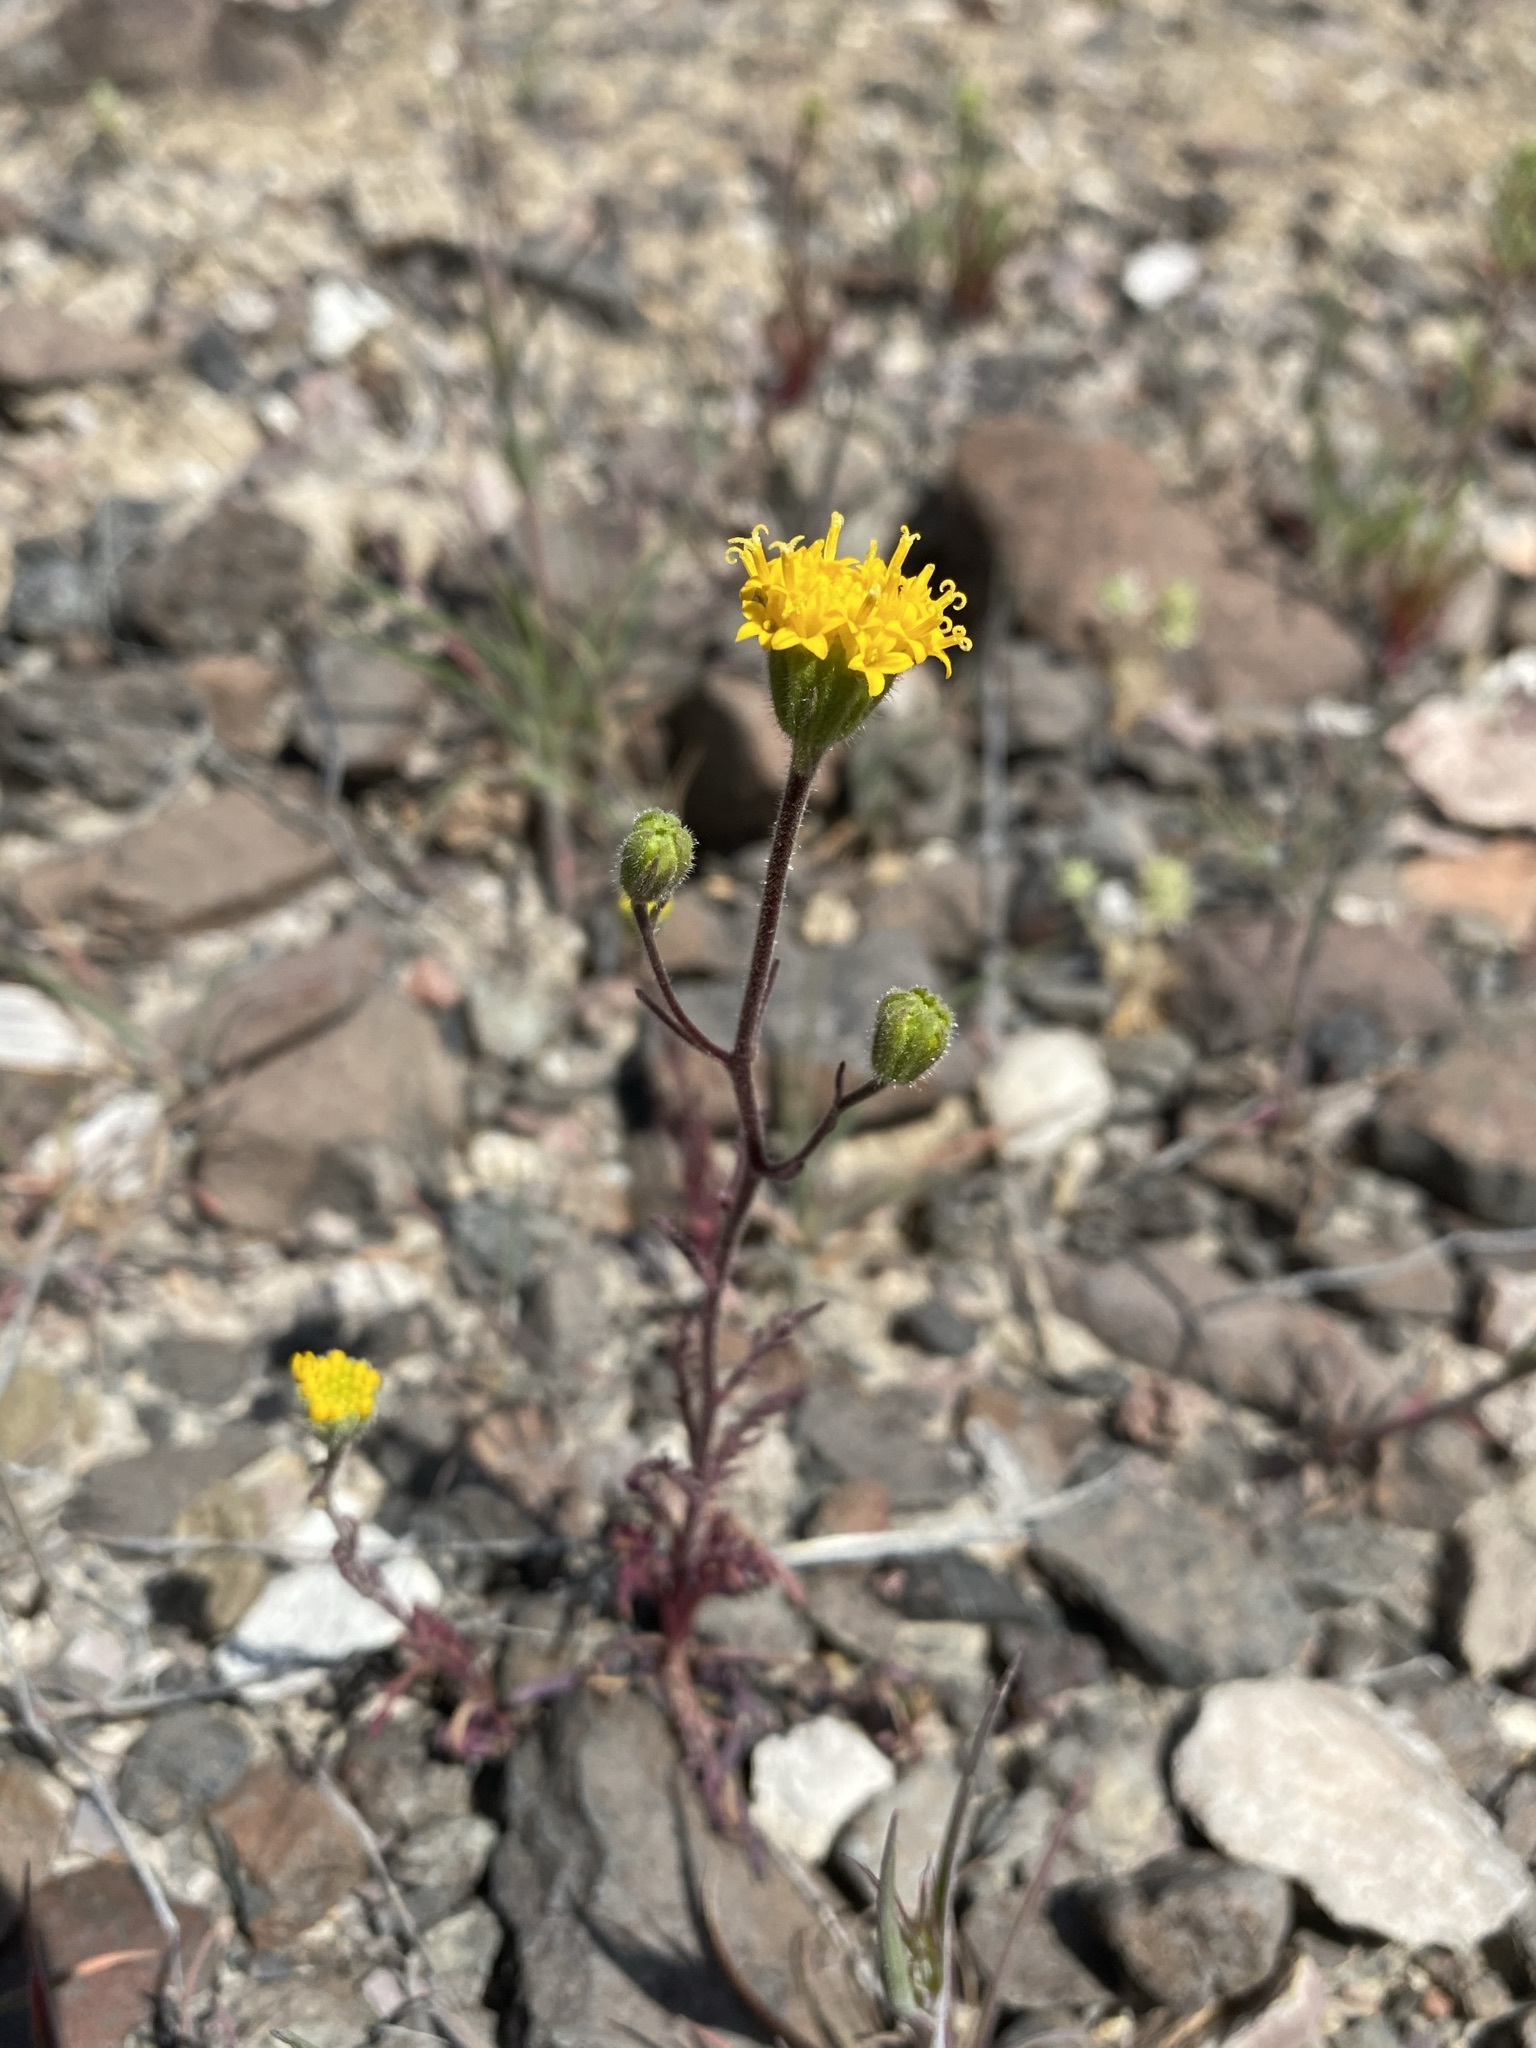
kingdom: Plantae
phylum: Tracheophyta
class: Magnoliopsida
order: Asterales
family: Asteraceae
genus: Chaenactis
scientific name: Chaenactis nevii
